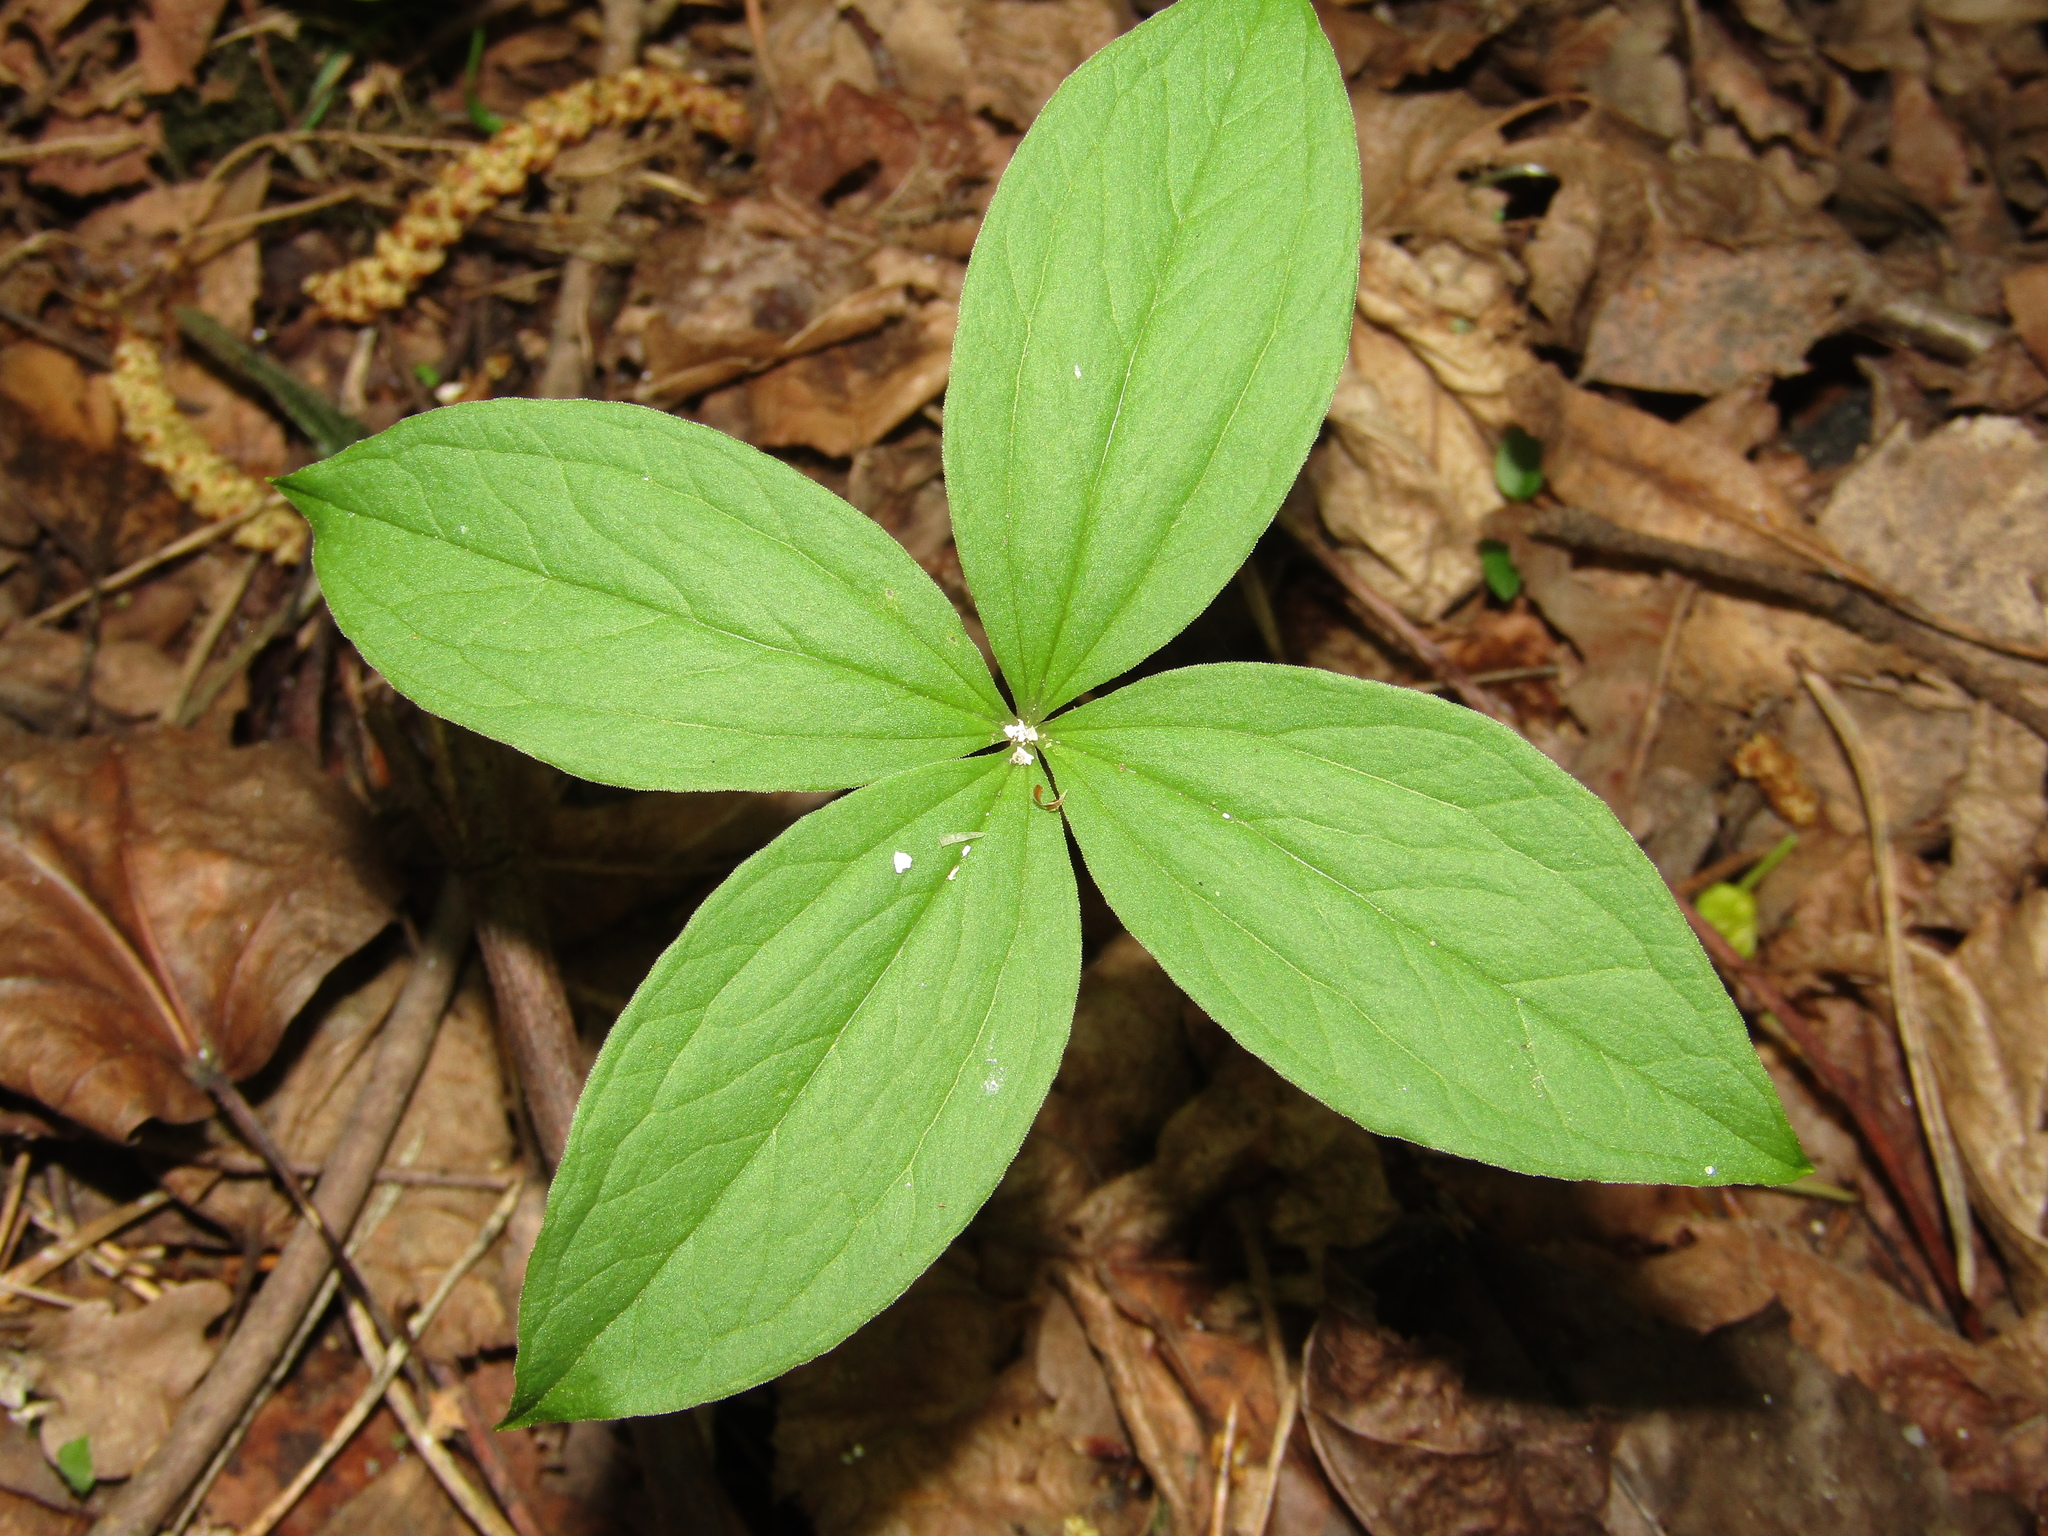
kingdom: Plantae
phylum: Tracheophyta
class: Liliopsida
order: Liliales
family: Melanthiaceae
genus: Paris
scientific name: Paris quadrifolia
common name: Herb-paris
